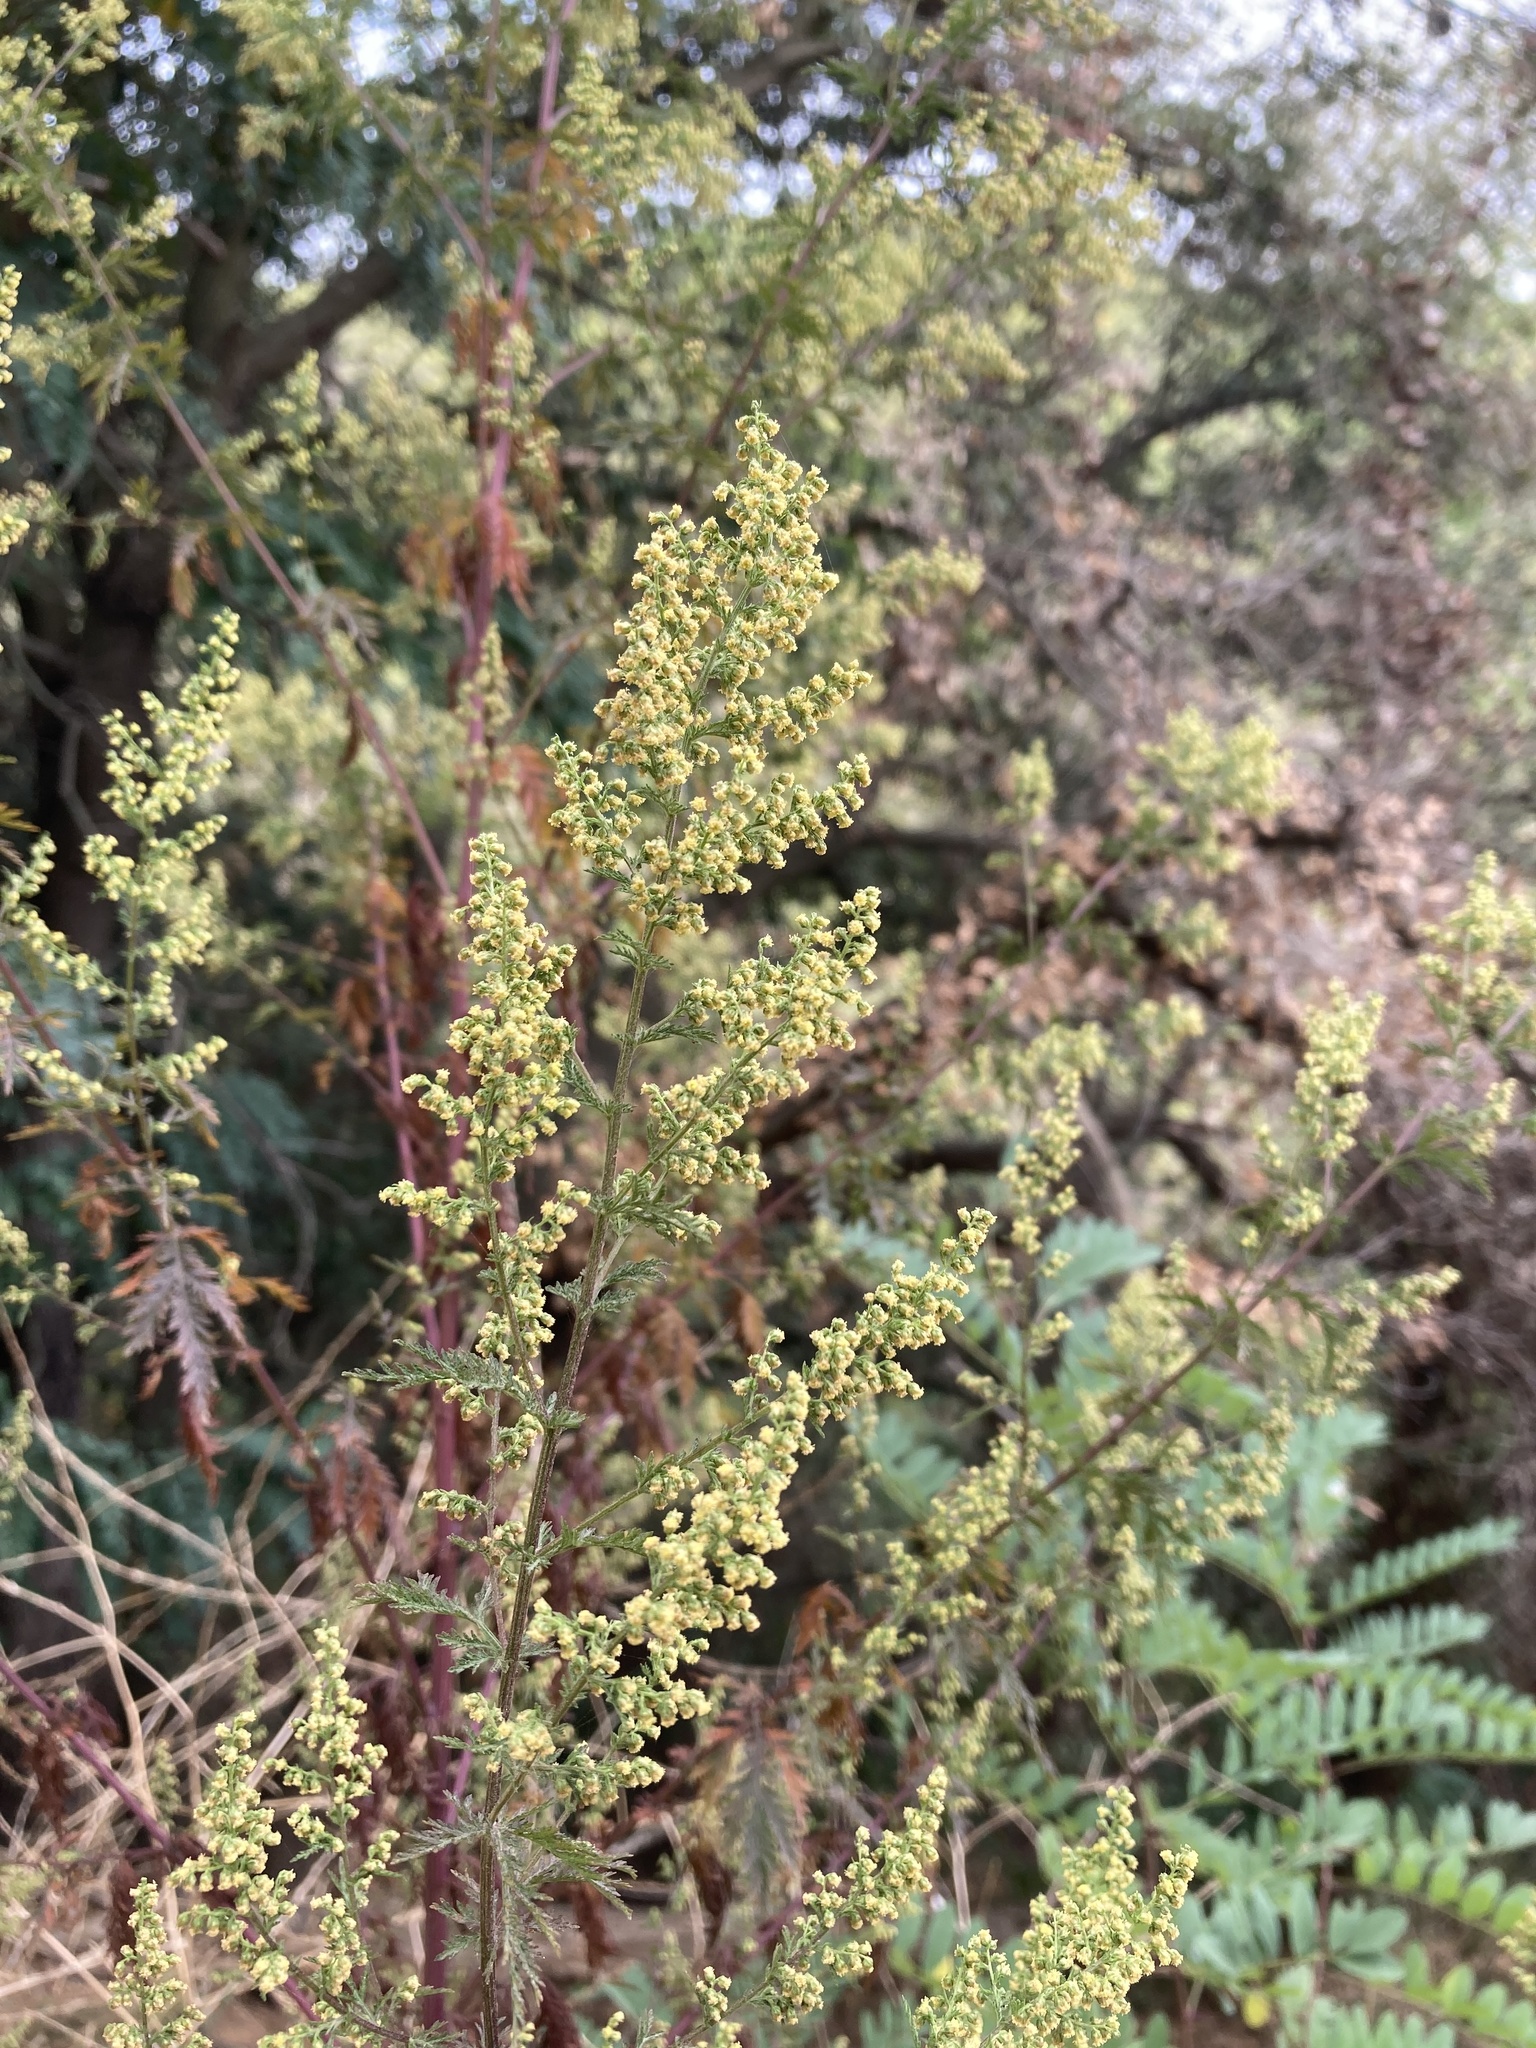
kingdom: Plantae
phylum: Tracheophyta
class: Magnoliopsida
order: Asterales
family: Asteraceae
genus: Artemisia
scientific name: Artemisia annua
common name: Sweet sagewort
